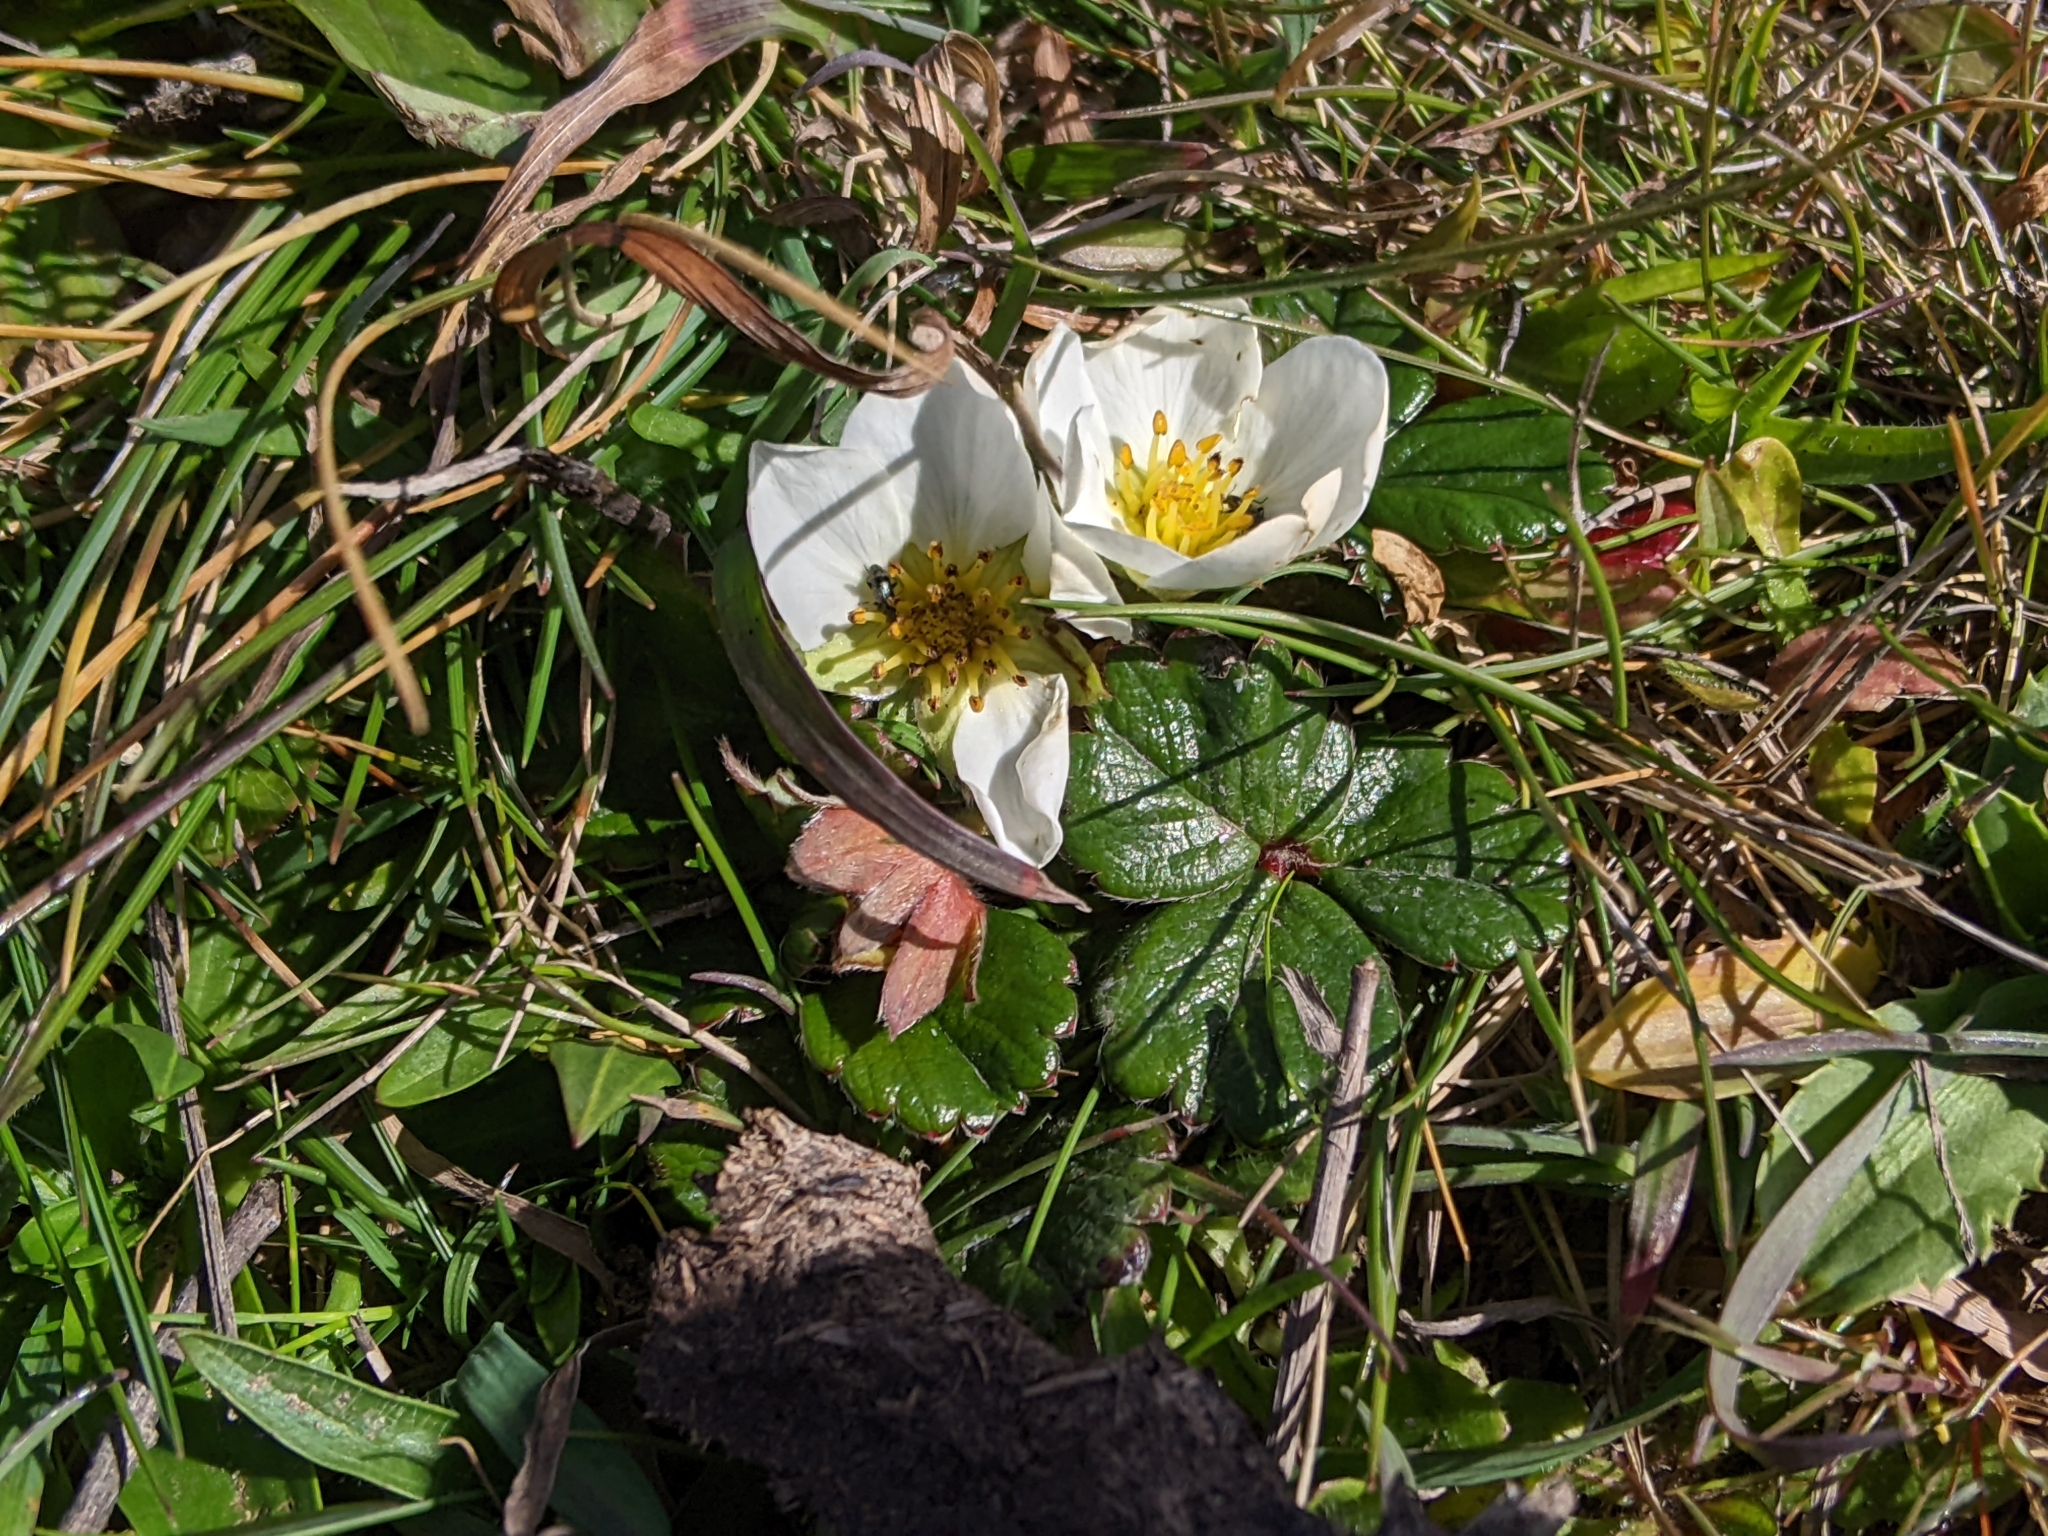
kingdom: Plantae
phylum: Tracheophyta
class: Magnoliopsida
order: Rosales
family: Rosaceae
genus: Fragaria
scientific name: Fragaria chiloensis
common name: Beach strawberry
